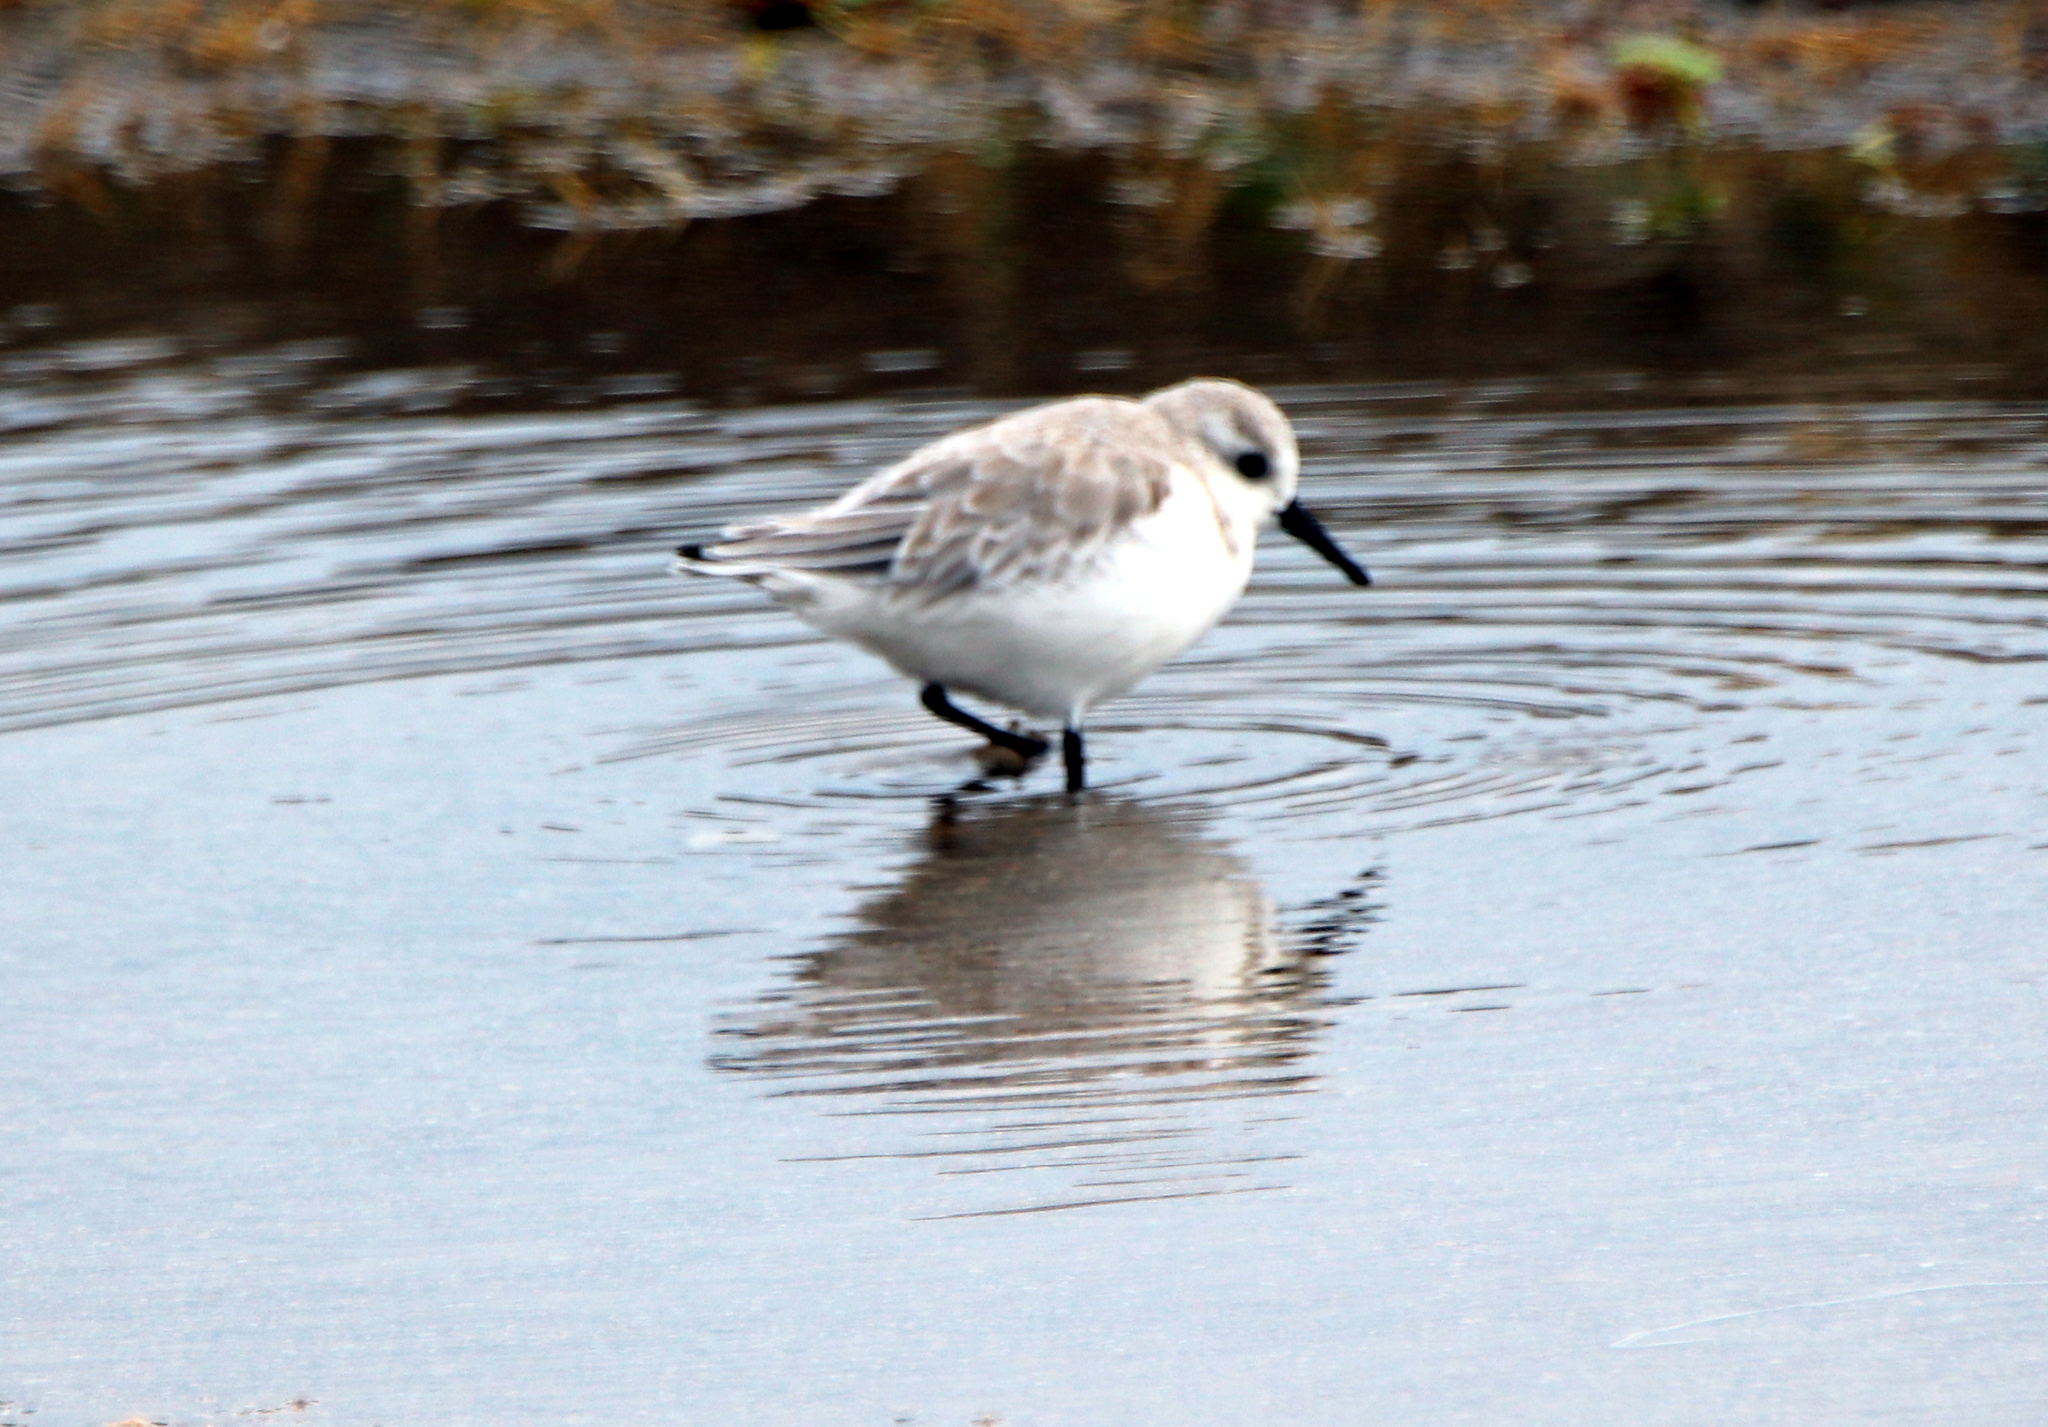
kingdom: Animalia
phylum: Chordata
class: Aves
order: Charadriiformes
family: Scolopacidae
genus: Calidris
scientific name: Calidris alba
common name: Sanderling
